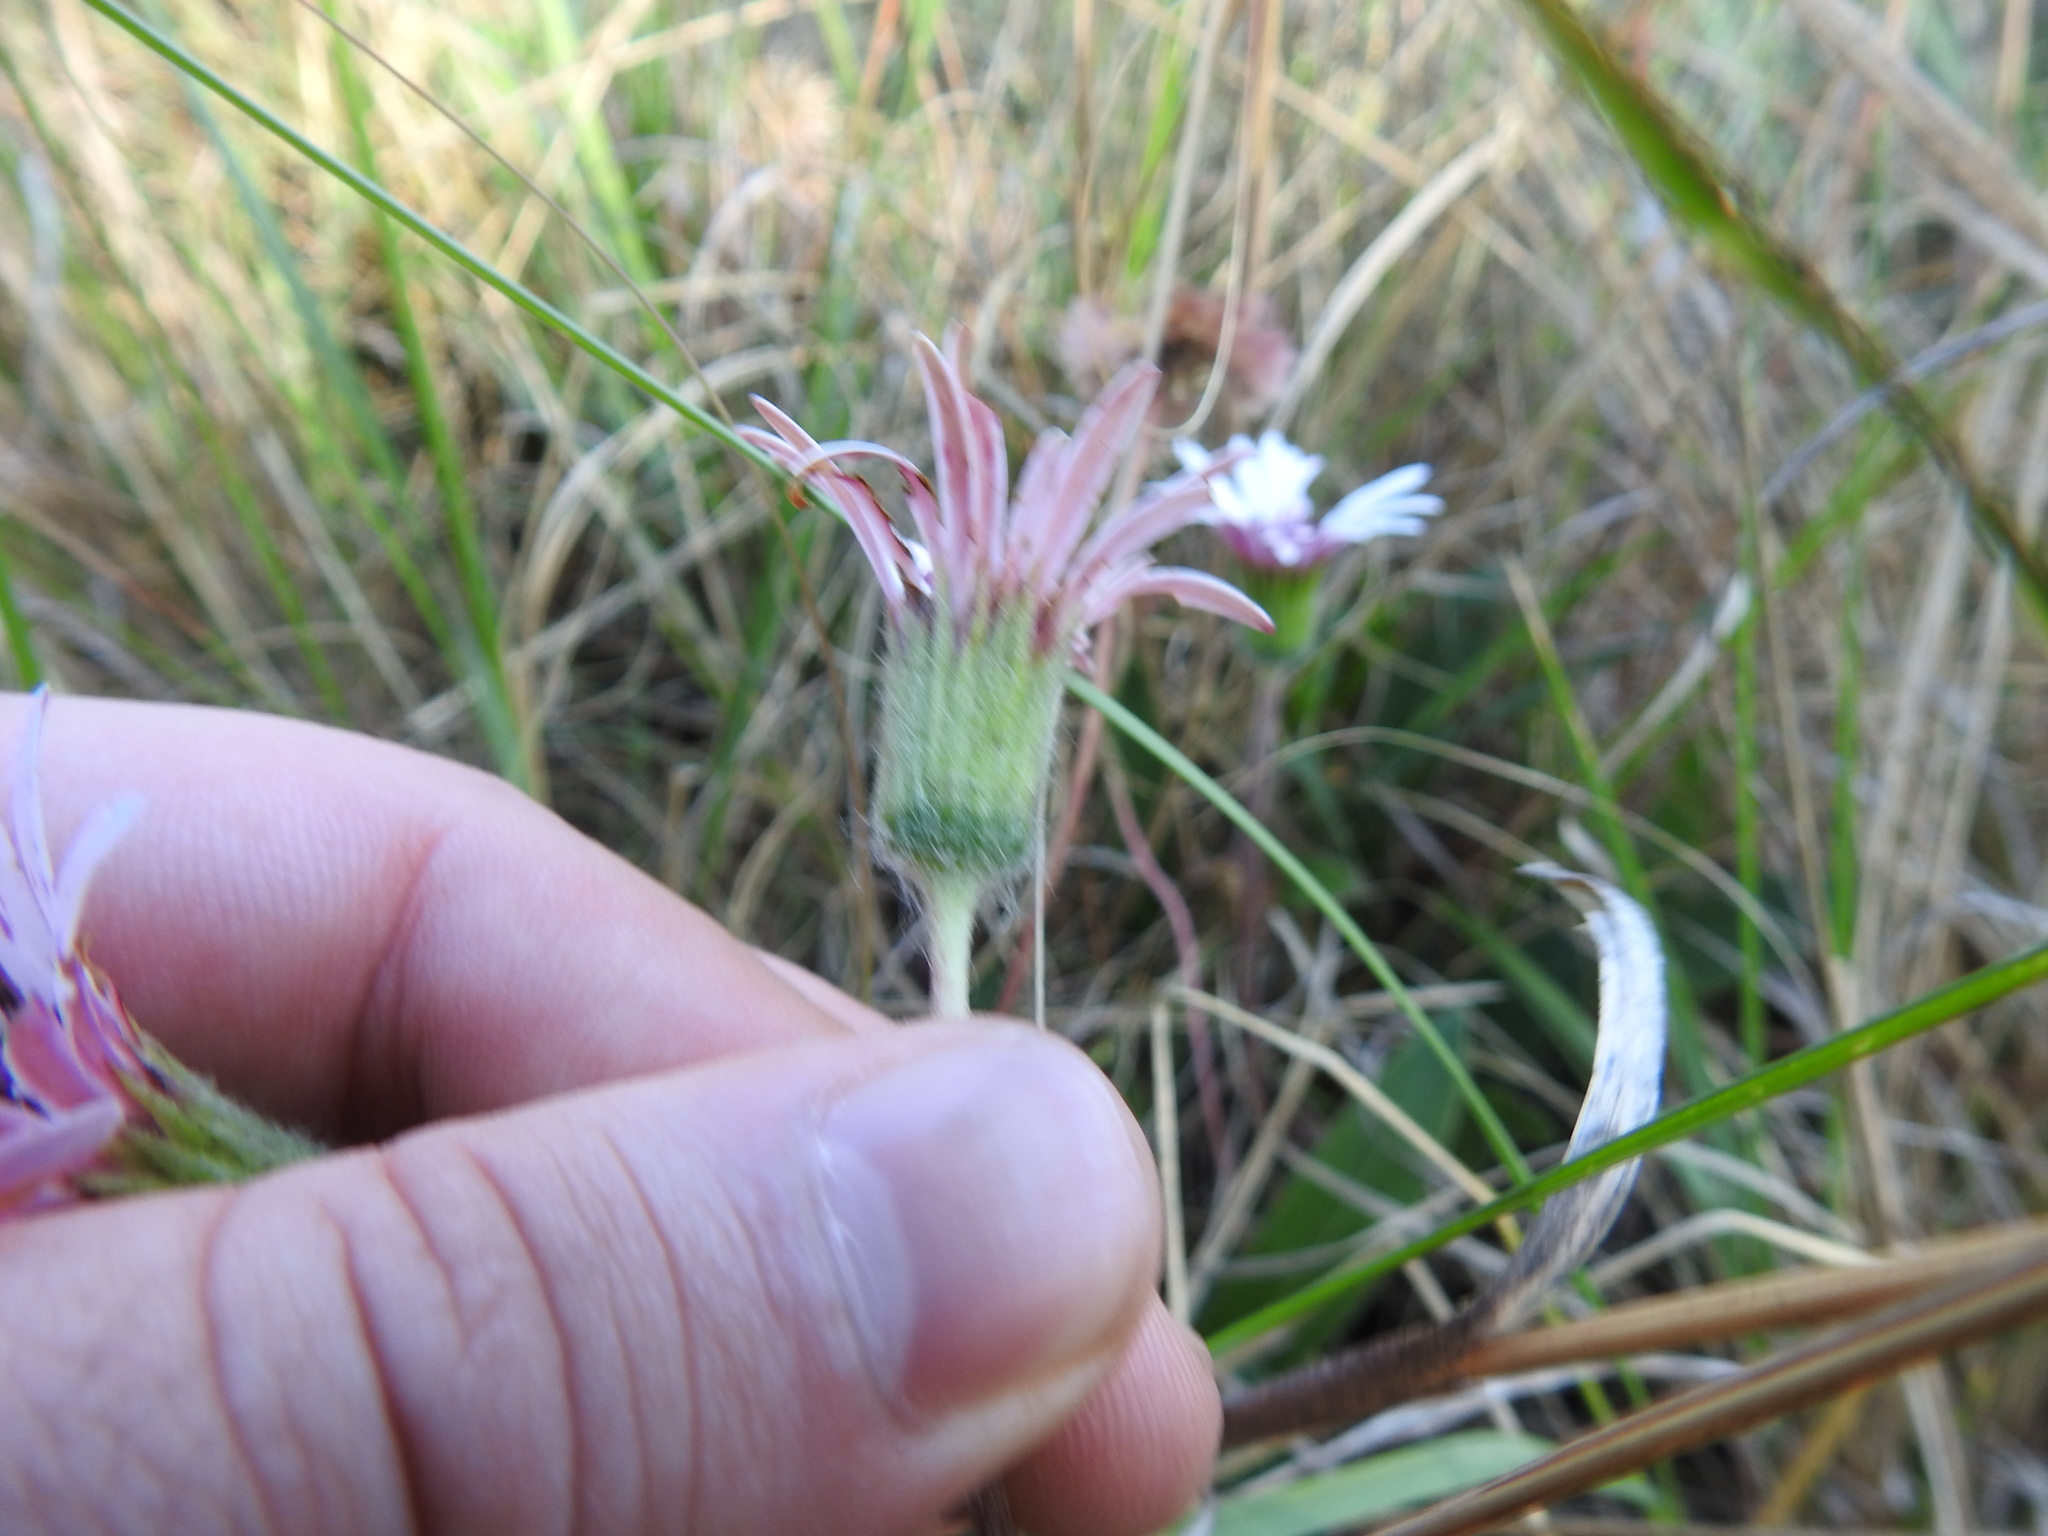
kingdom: Plantae
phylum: Tracheophyta
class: Magnoliopsida
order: Asterales
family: Asteraceae
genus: Gerbera
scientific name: Gerbera viridifolia
